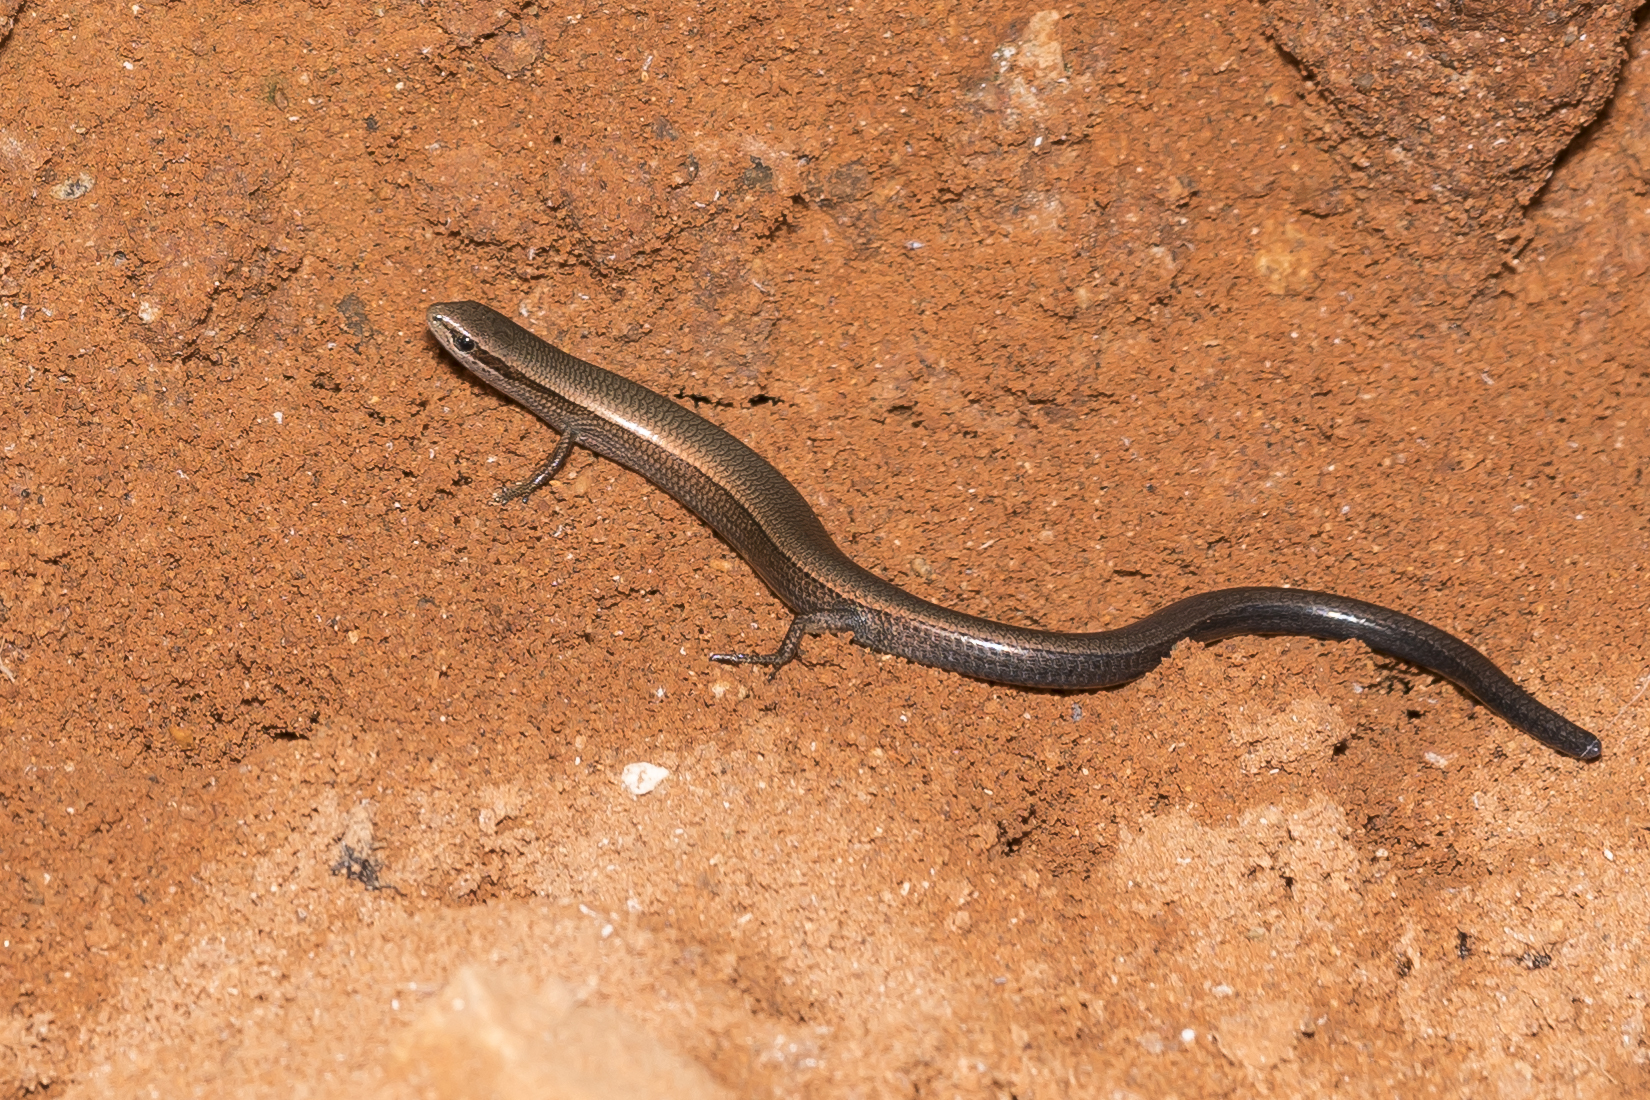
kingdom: Animalia
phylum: Chordata
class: Squamata
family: Scincidae
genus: Ablepharus
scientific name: Ablepharus kitaibelii
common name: Juniper skink
